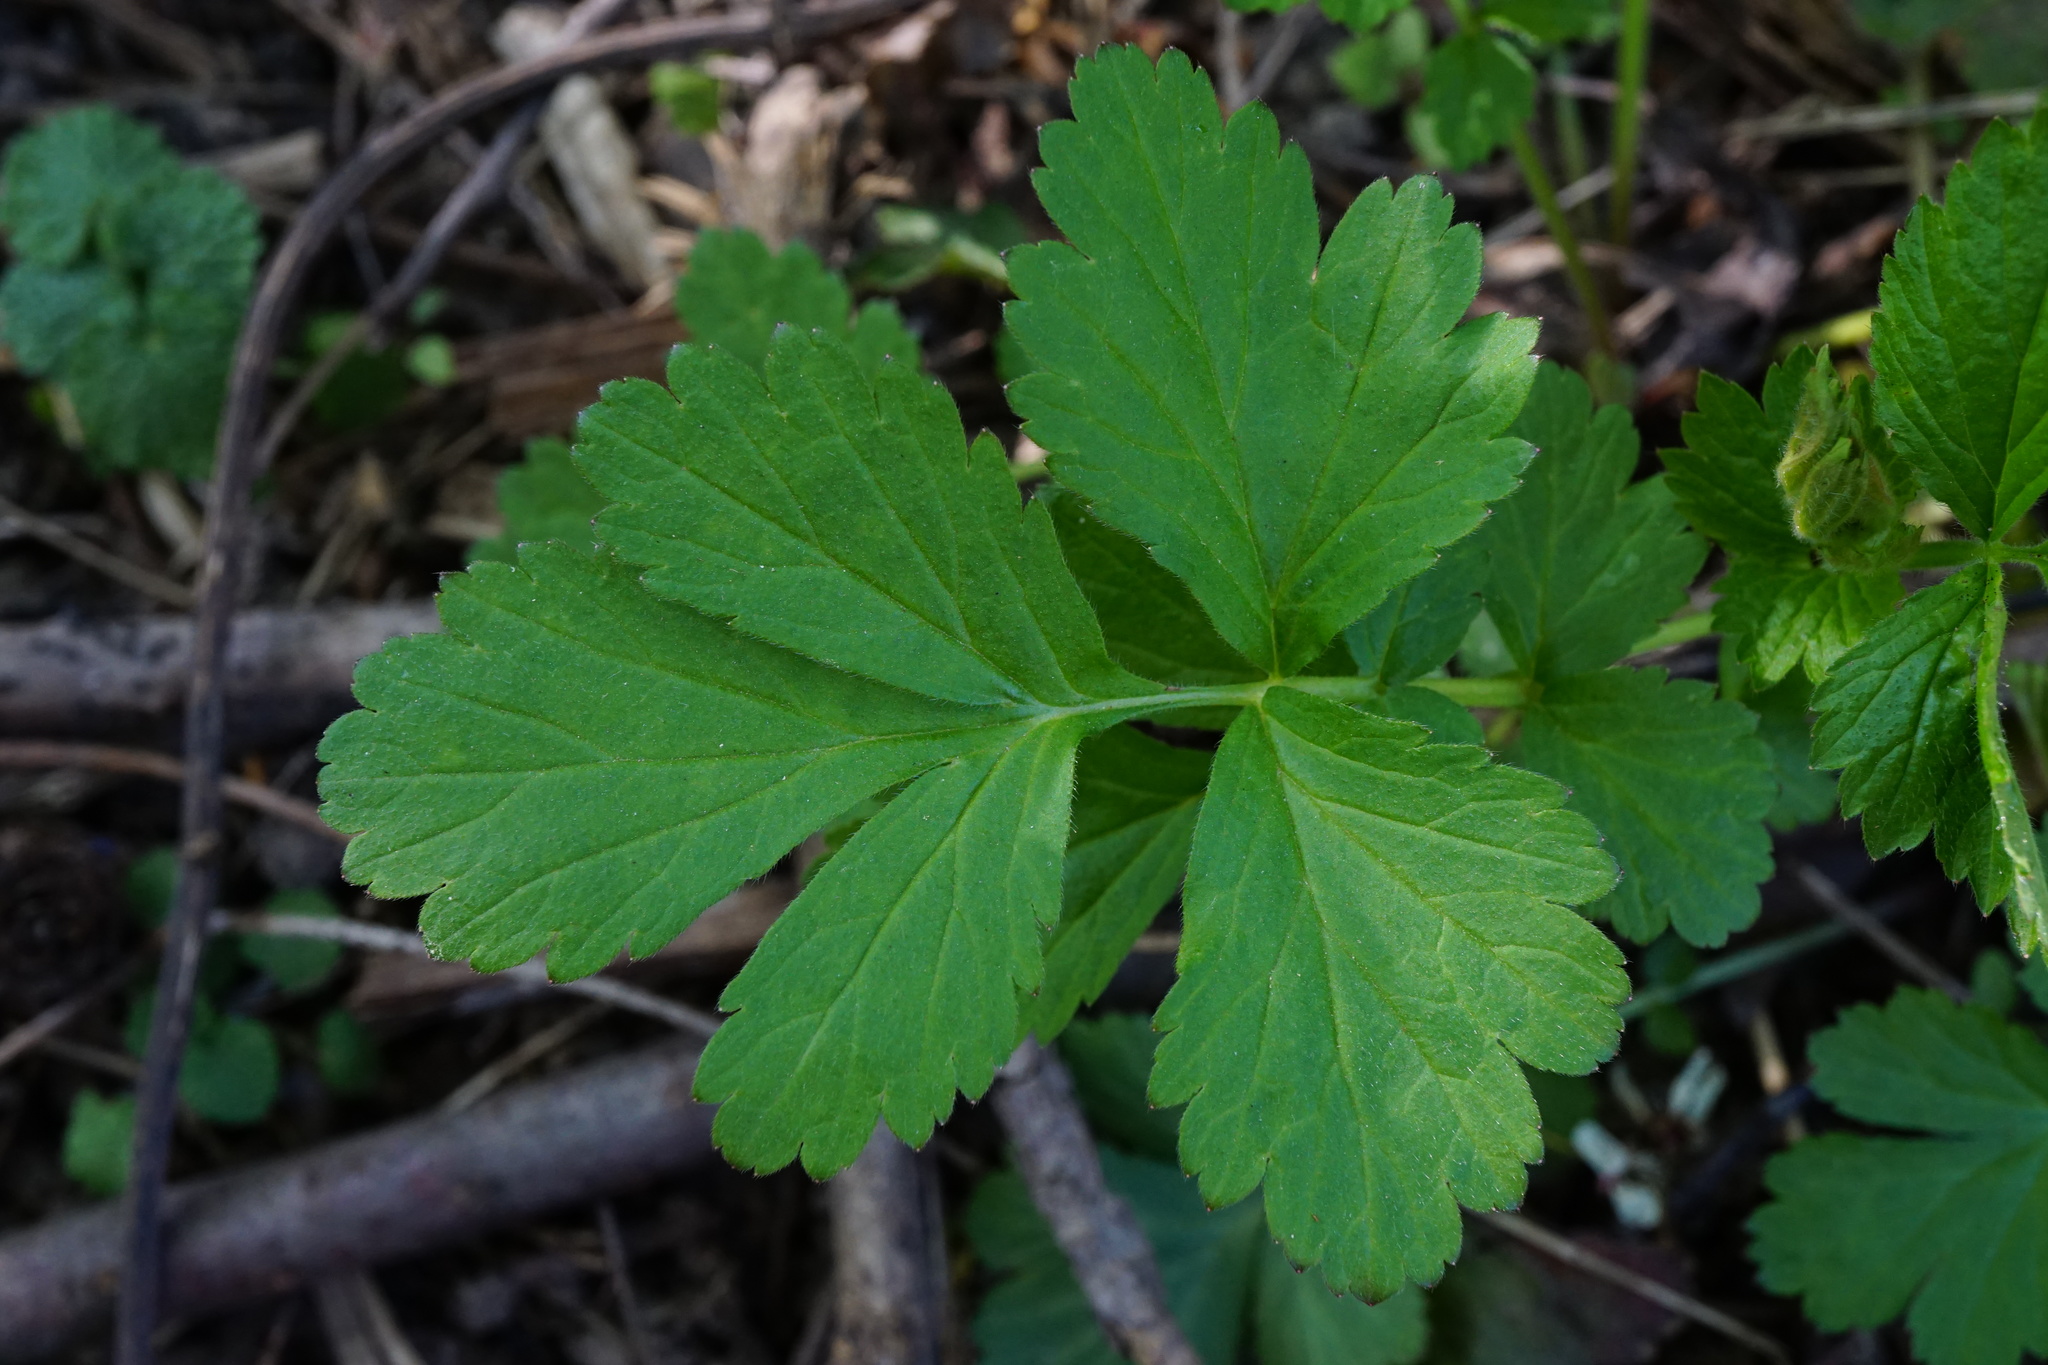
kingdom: Plantae
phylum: Tracheophyta
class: Magnoliopsida
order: Rosales
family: Rosaceae
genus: Geum
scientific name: Geum urbanum
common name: Wood avens
